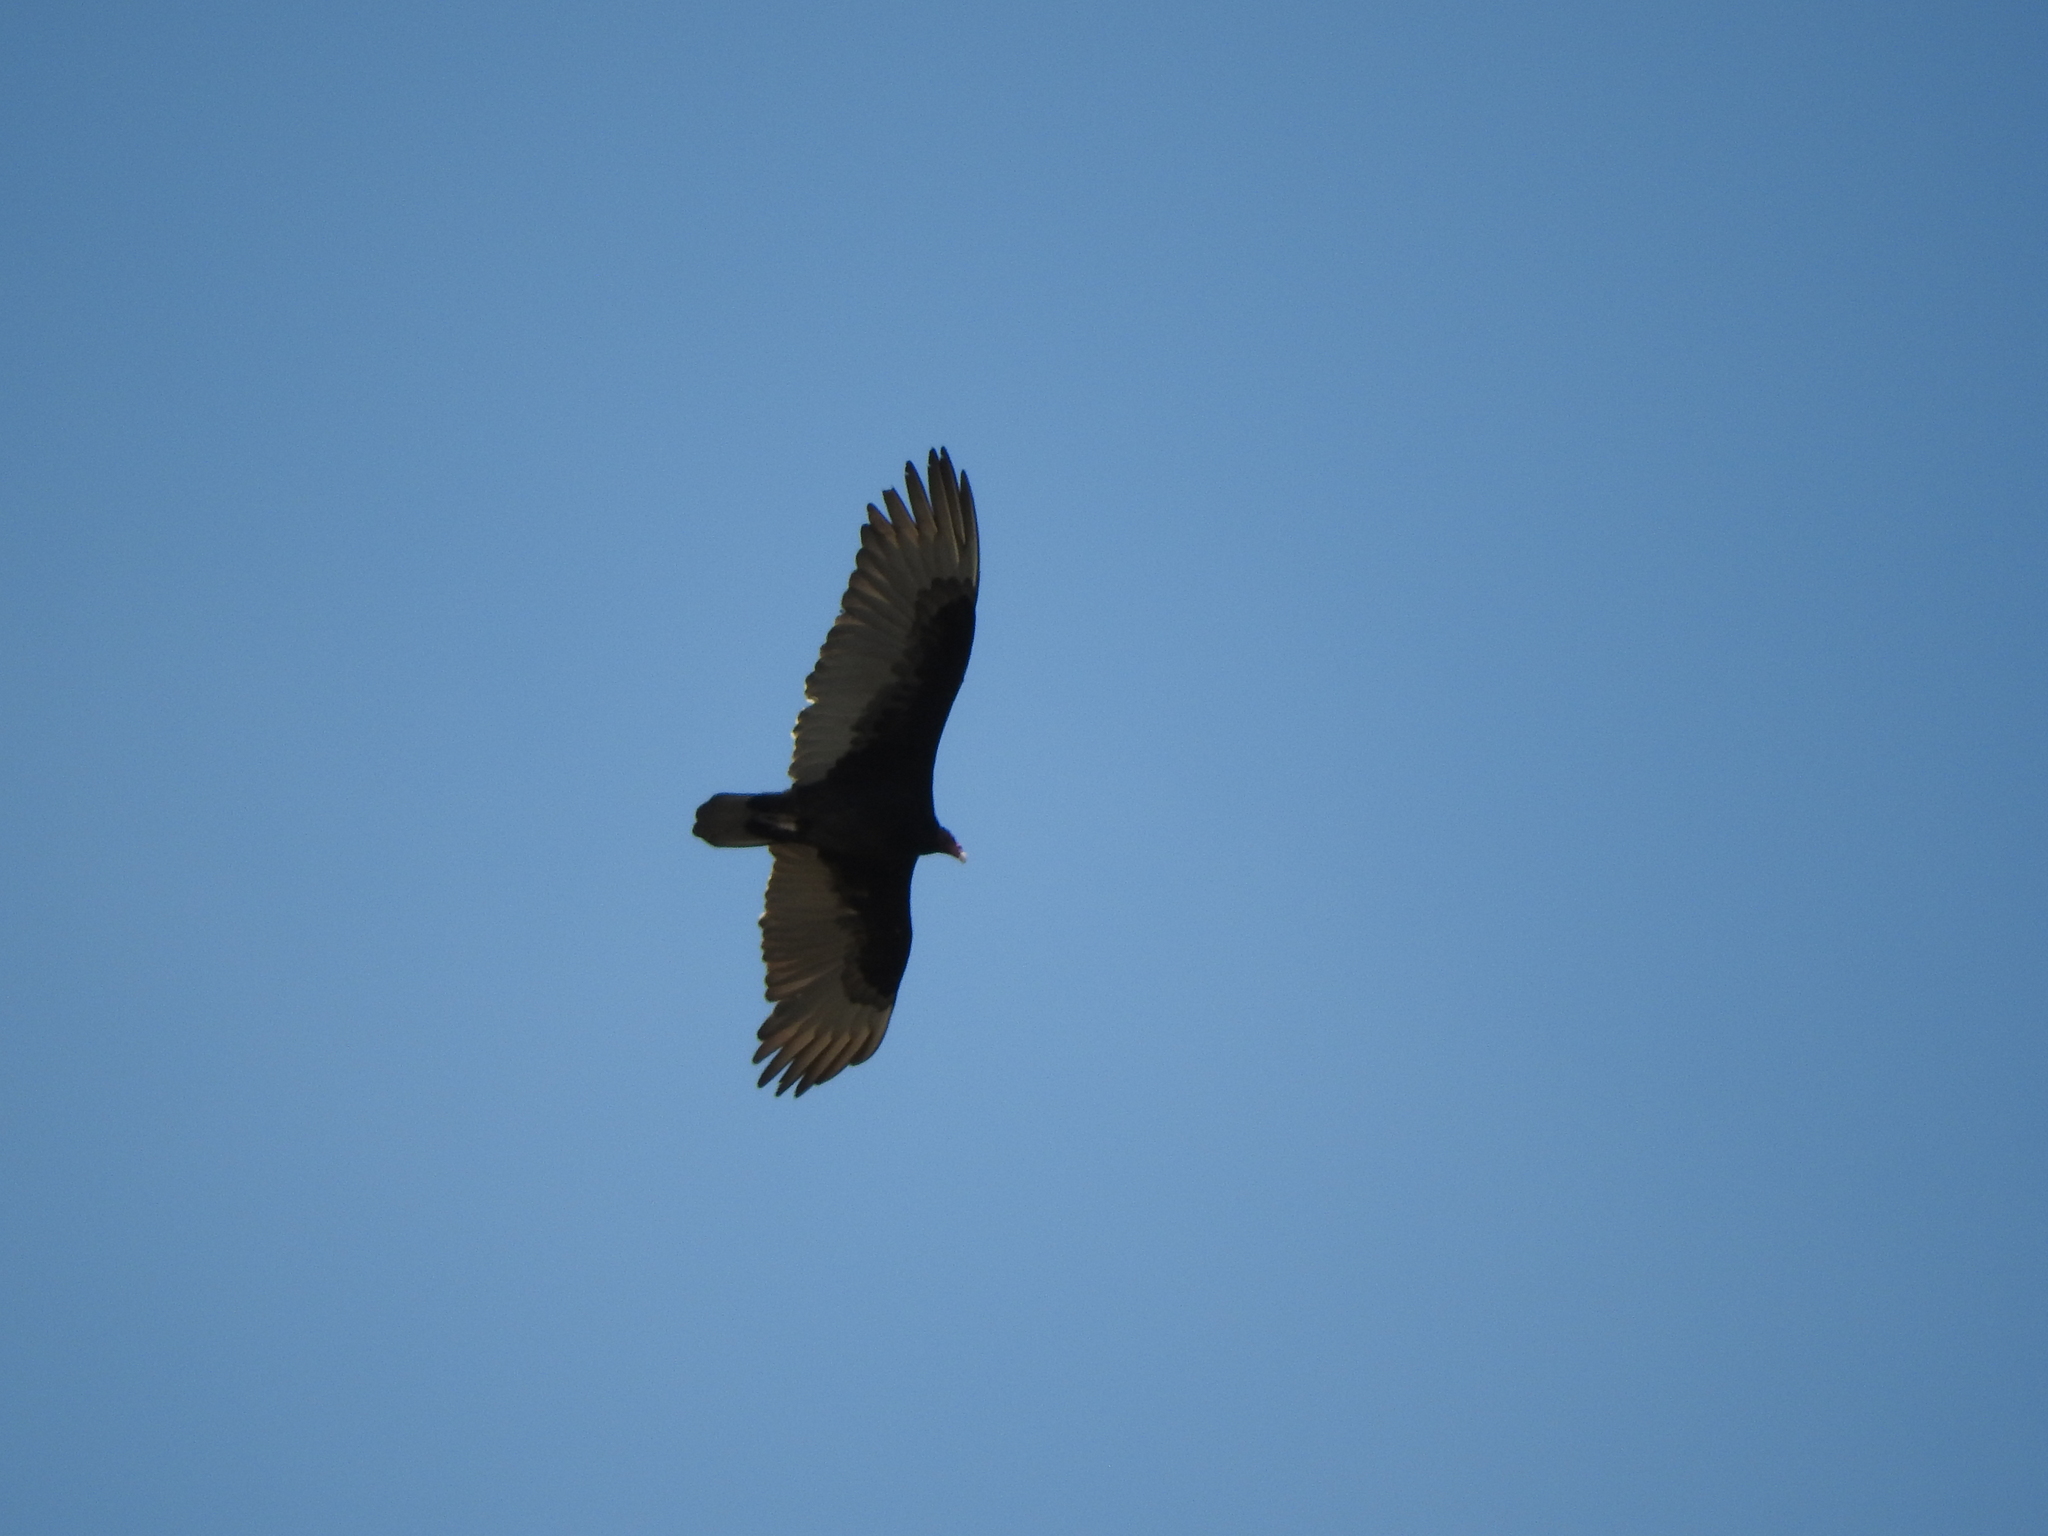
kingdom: Animalia
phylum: Chordata
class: Aves
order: Accipitriformes
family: Cathartidae
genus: Cathartes
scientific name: Cathartes aura
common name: Turkey vulture
